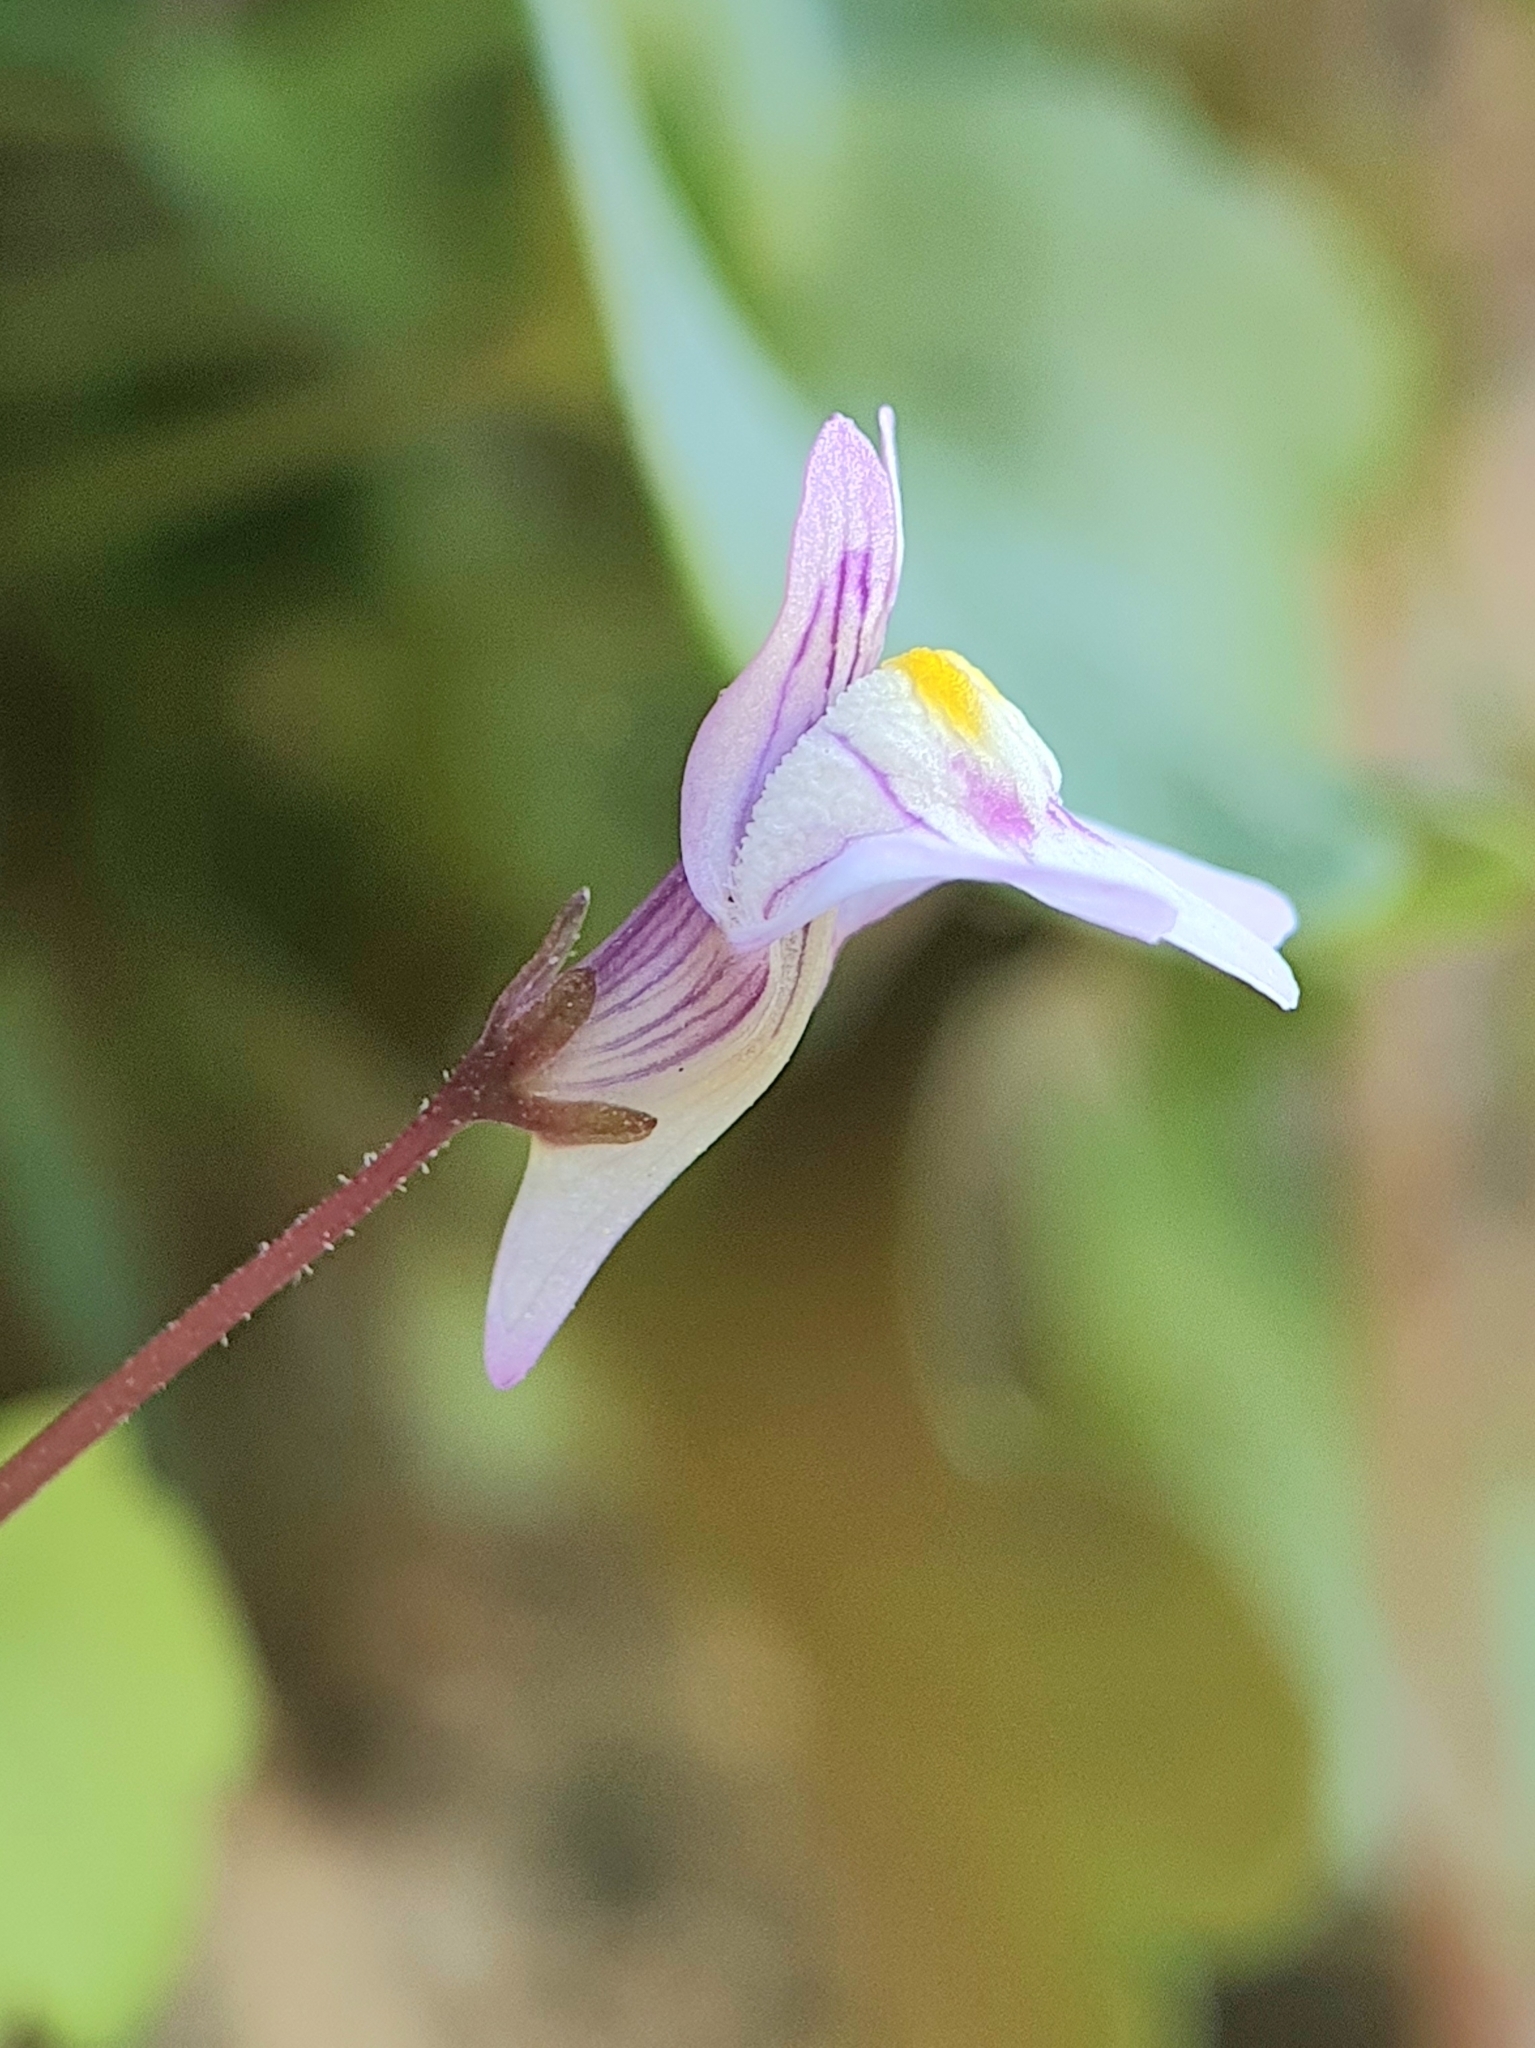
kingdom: Plantae
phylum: Tracheophyta
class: Magnoliopsida
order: Lamiales
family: Plantaginaceae
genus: Cymbalaria
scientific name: Cymbalaria muralis
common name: Ivy-leaved toadflax
